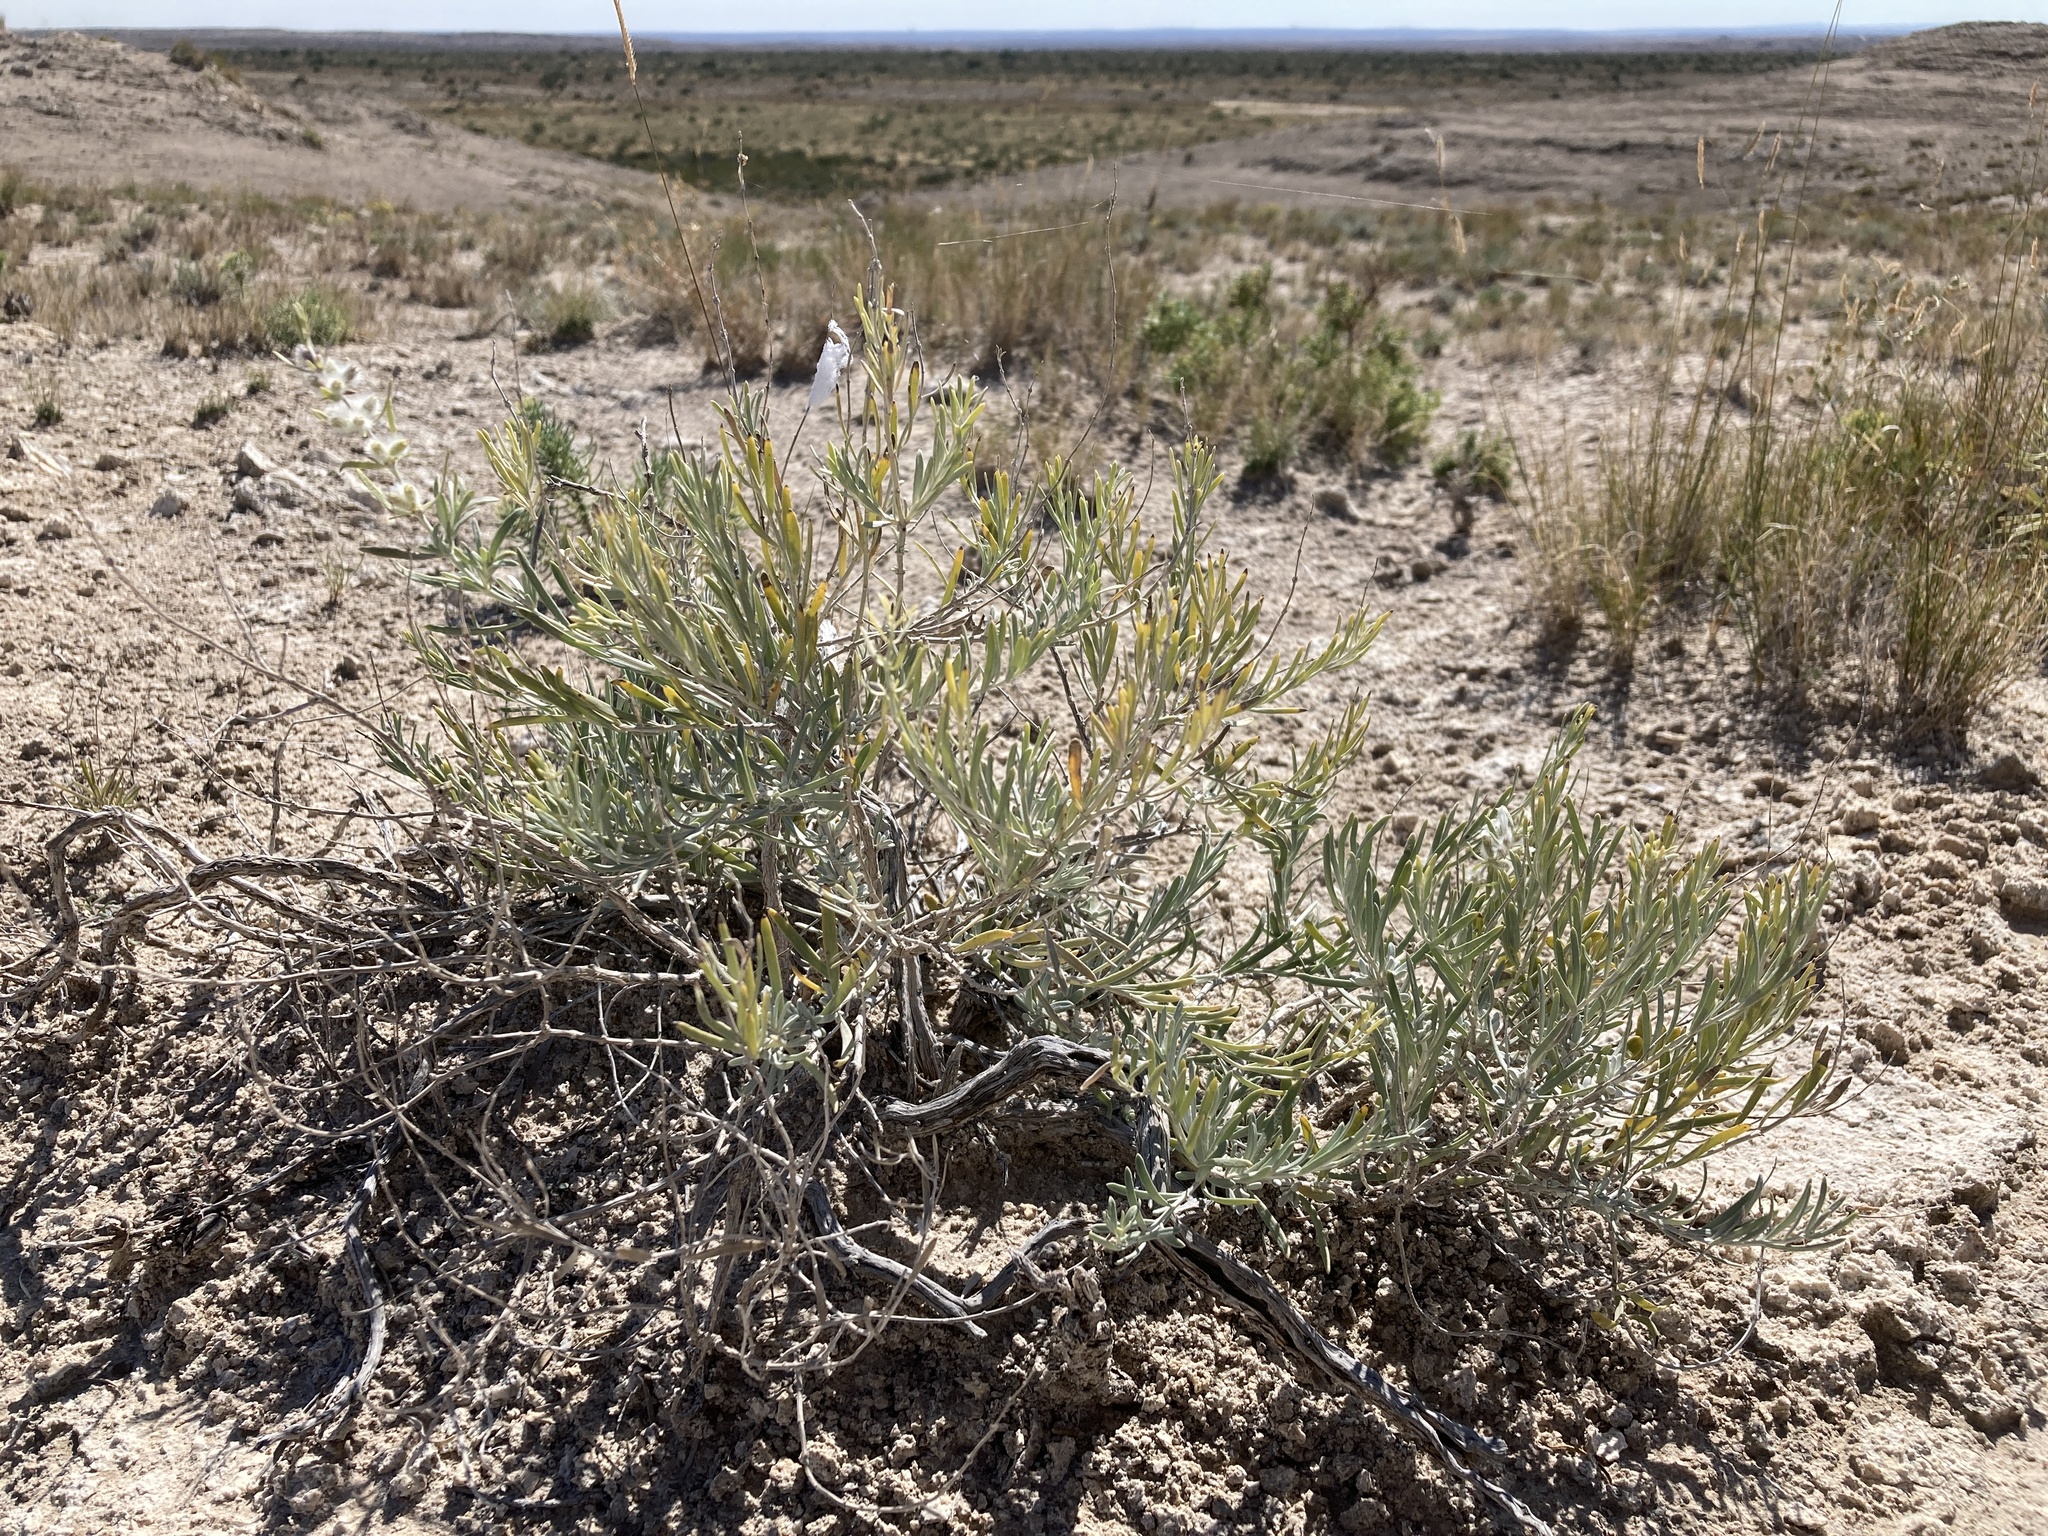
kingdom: Plantae
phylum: Tracheophyta
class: Magnoliopsida
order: Lamiales
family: Lamiaceae
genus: Poliomintha
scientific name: Poliomintha incana
